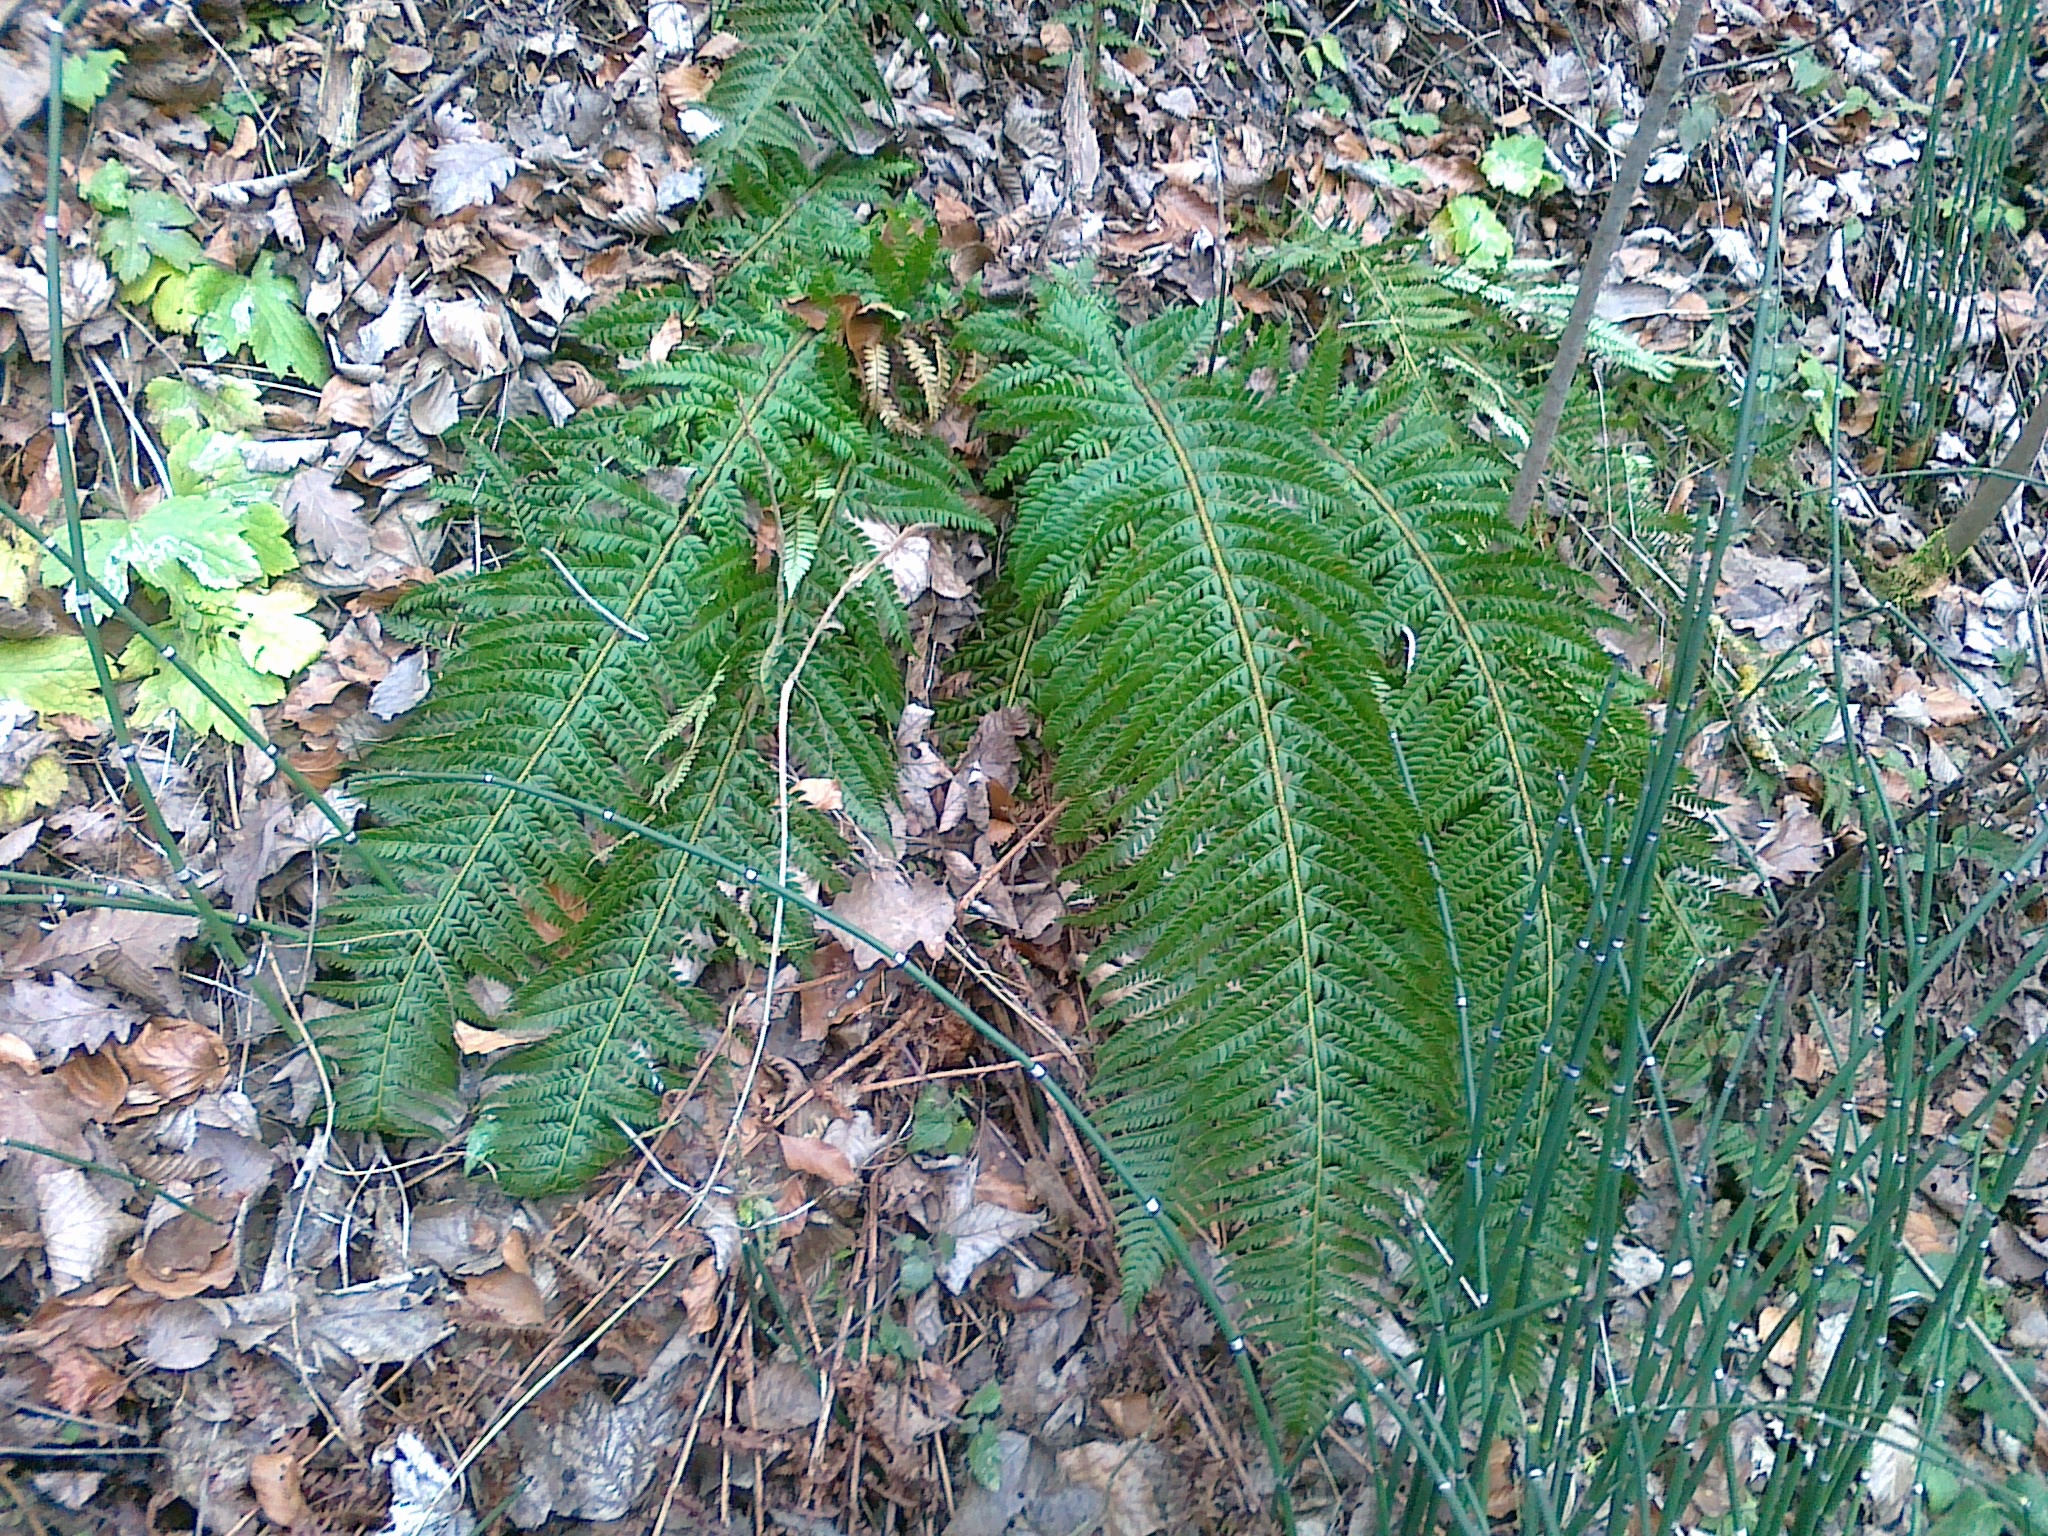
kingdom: Plantae
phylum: Tracheophyta
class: Polypodiopsida
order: Polypodiales
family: Dryopteridaceae
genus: Polystichum
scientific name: Polystichum aculeatum
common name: Hard shield-fern
